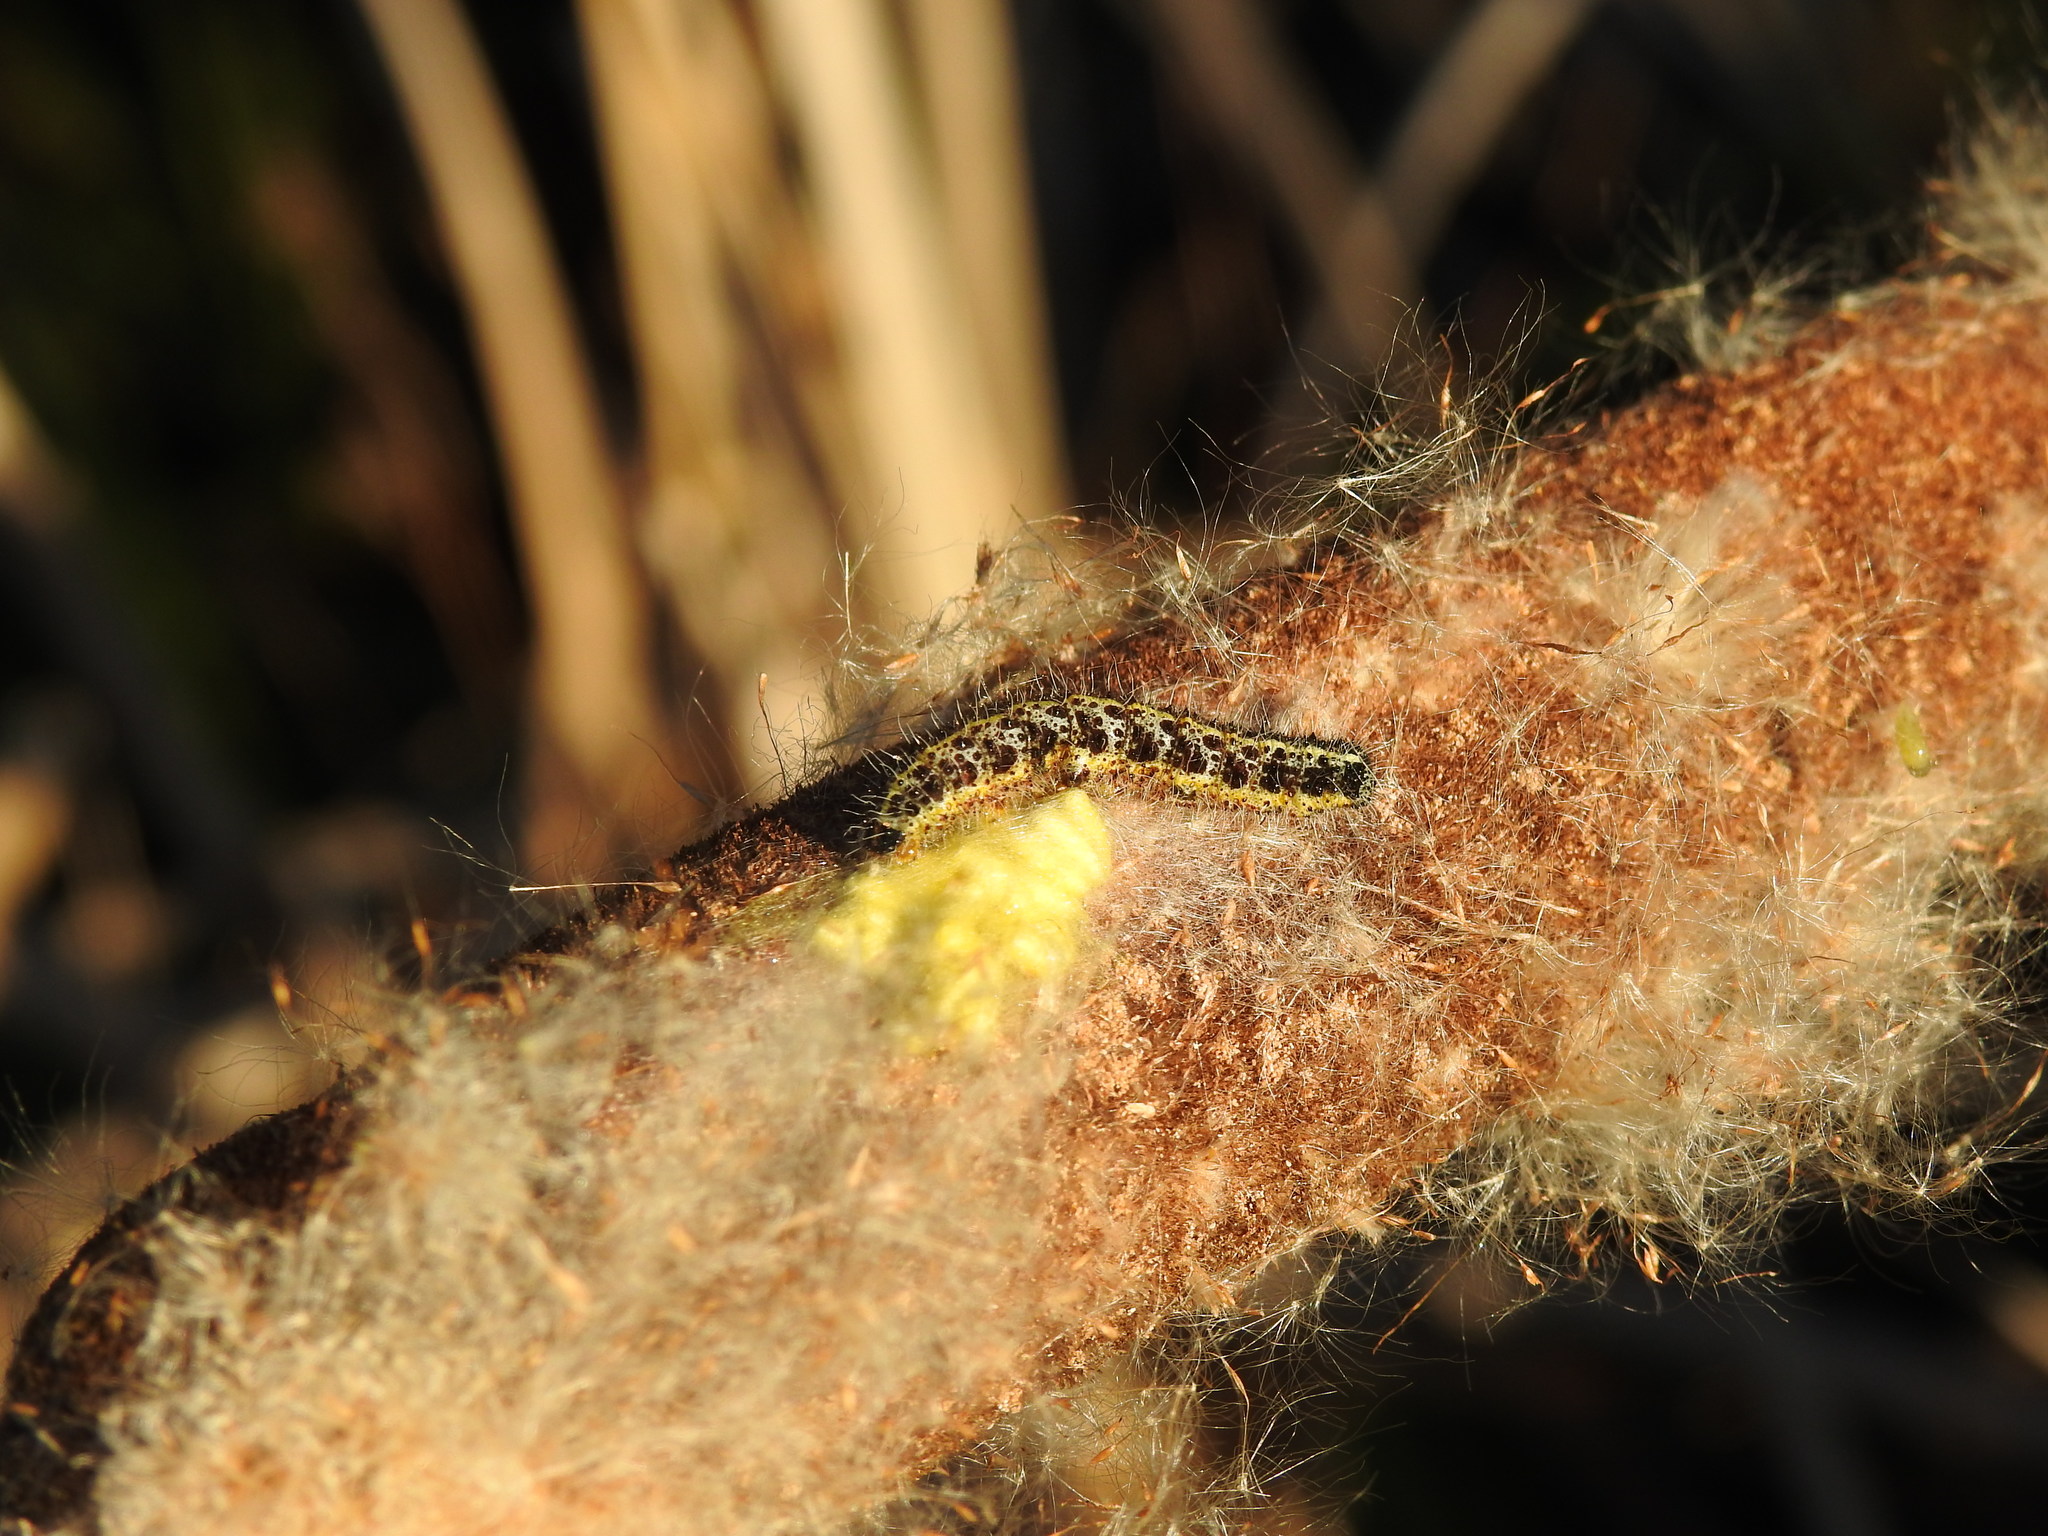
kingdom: Animalia
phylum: Arthropoda
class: Insecta
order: Hymenoptera
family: Braconidae
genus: Cotesia
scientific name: Cotesia glomerata
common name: Parasitoid wasp
